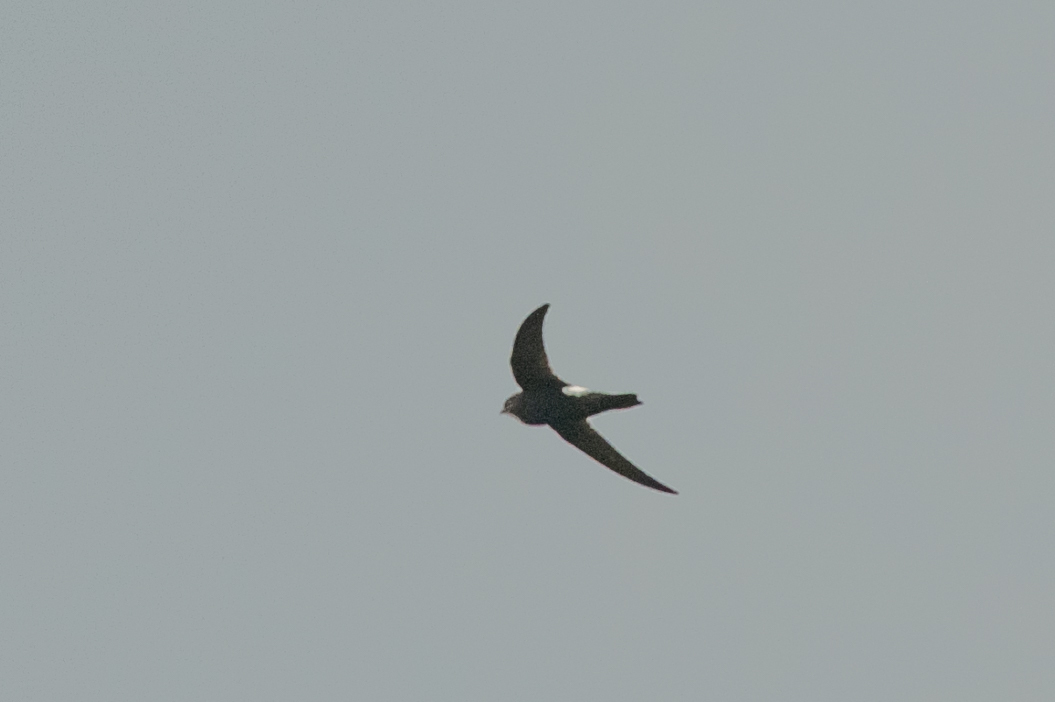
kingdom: Animalia
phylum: Chordata
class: Aves
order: Apodiformes
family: Apodidae
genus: Apus
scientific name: Apus nipalensis
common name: House swift
